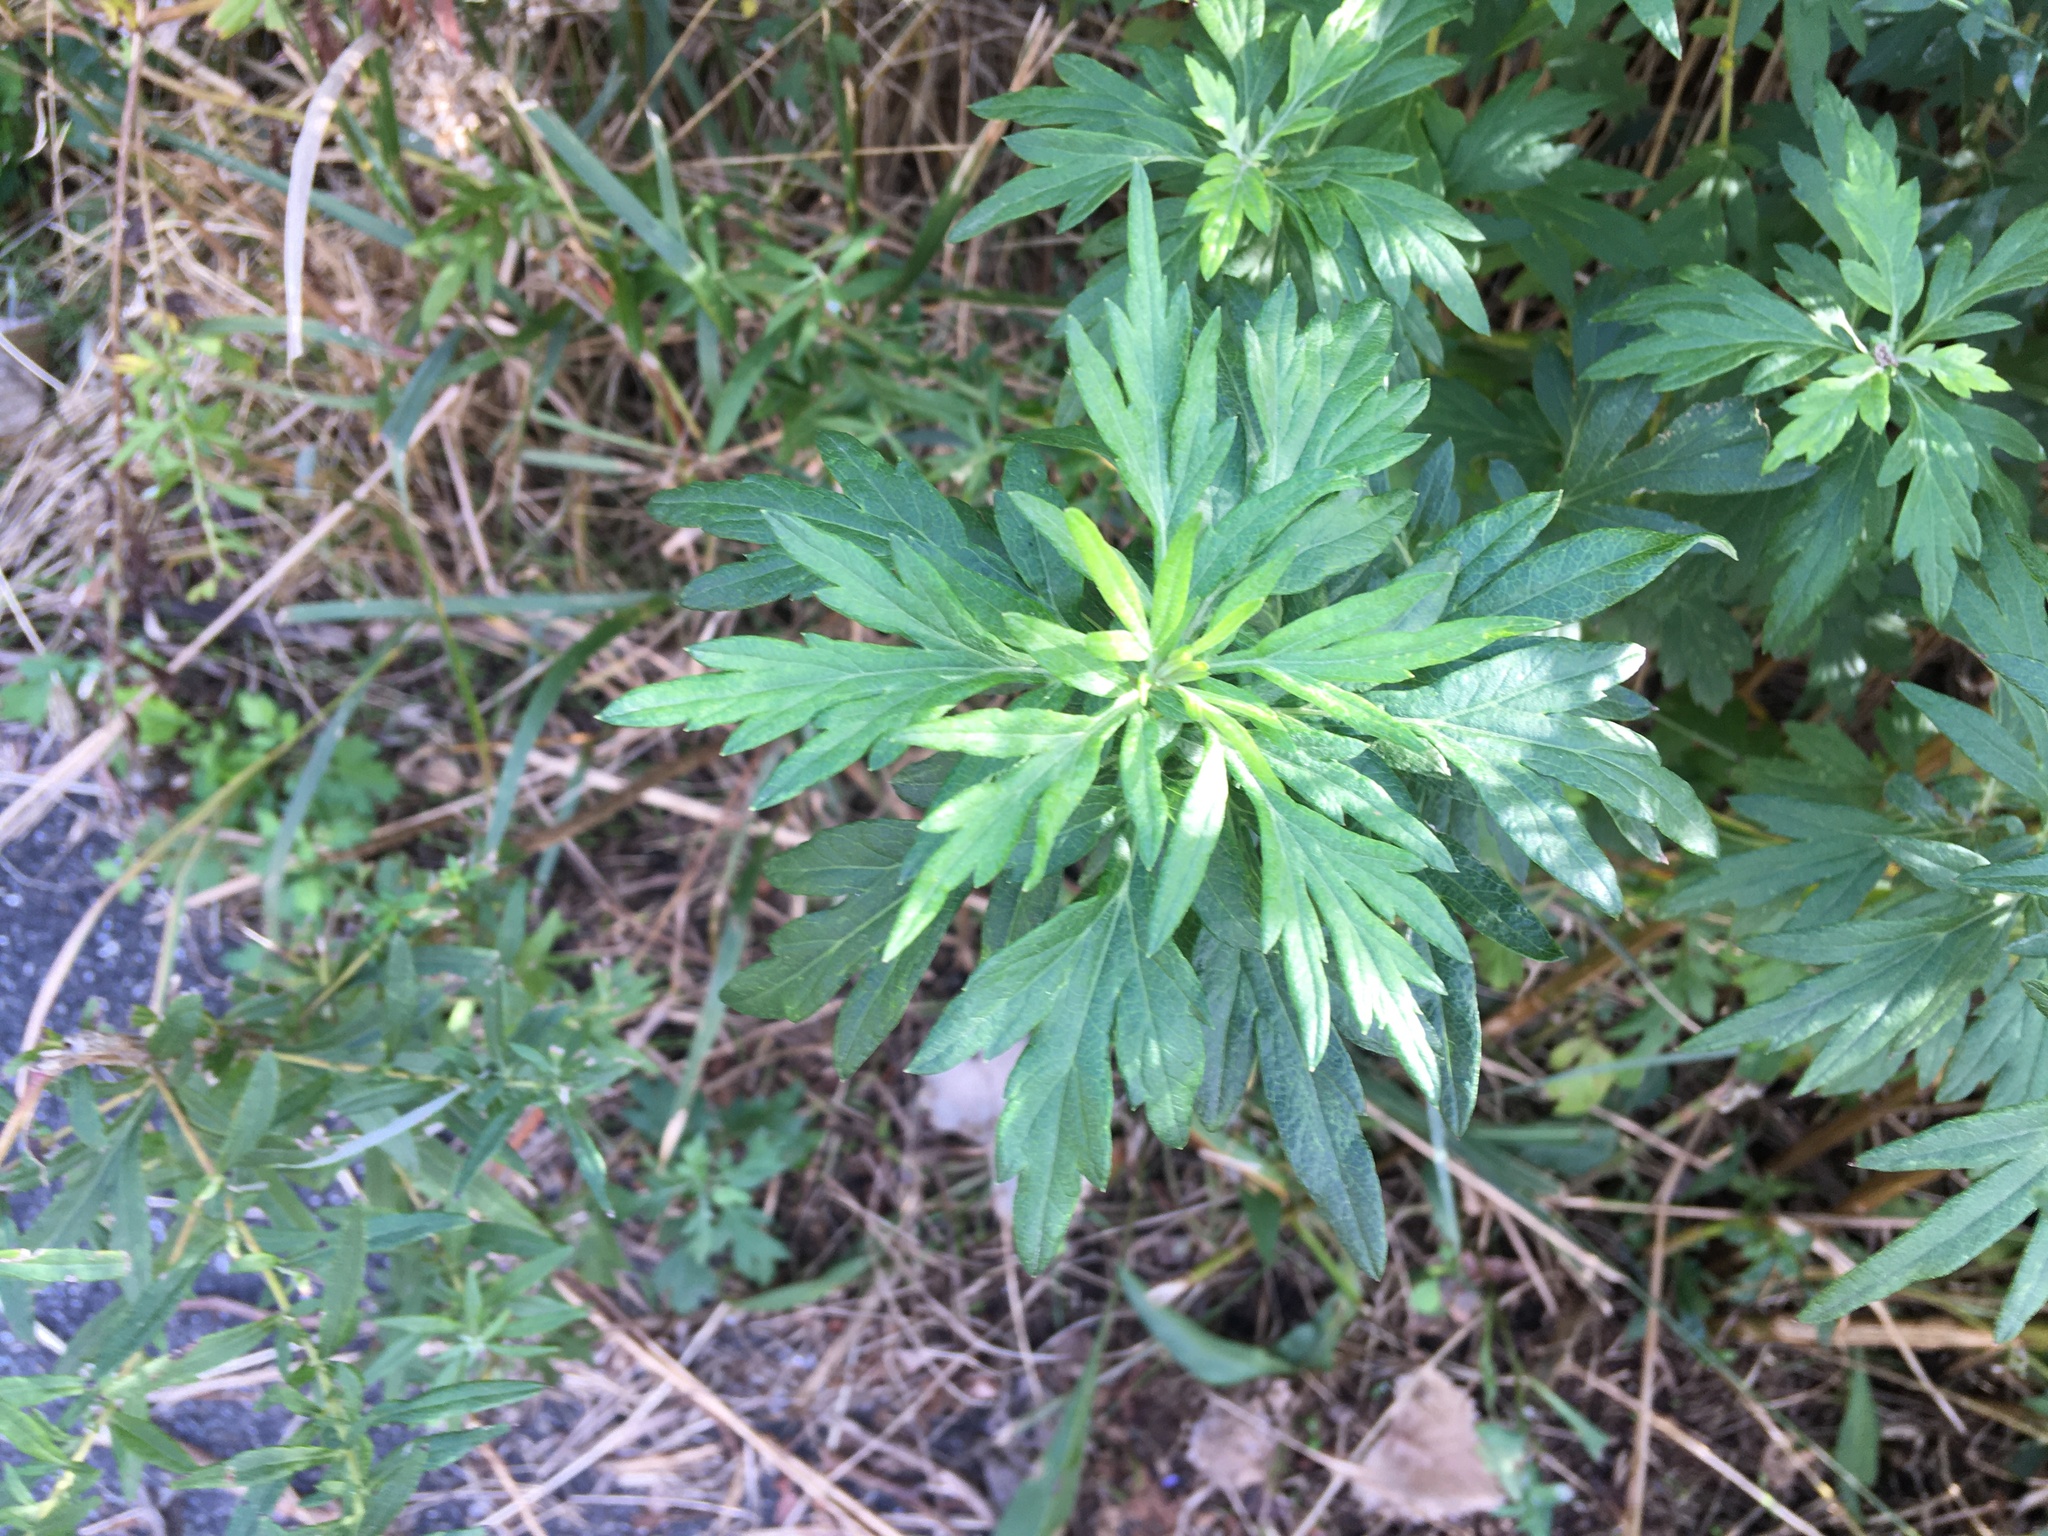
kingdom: Plantae
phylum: Tracheophyta
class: Magnoliopsida
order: Asterales
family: Asteraceae
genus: Artemisia
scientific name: Artemisia vulgaris
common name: Mugwort
